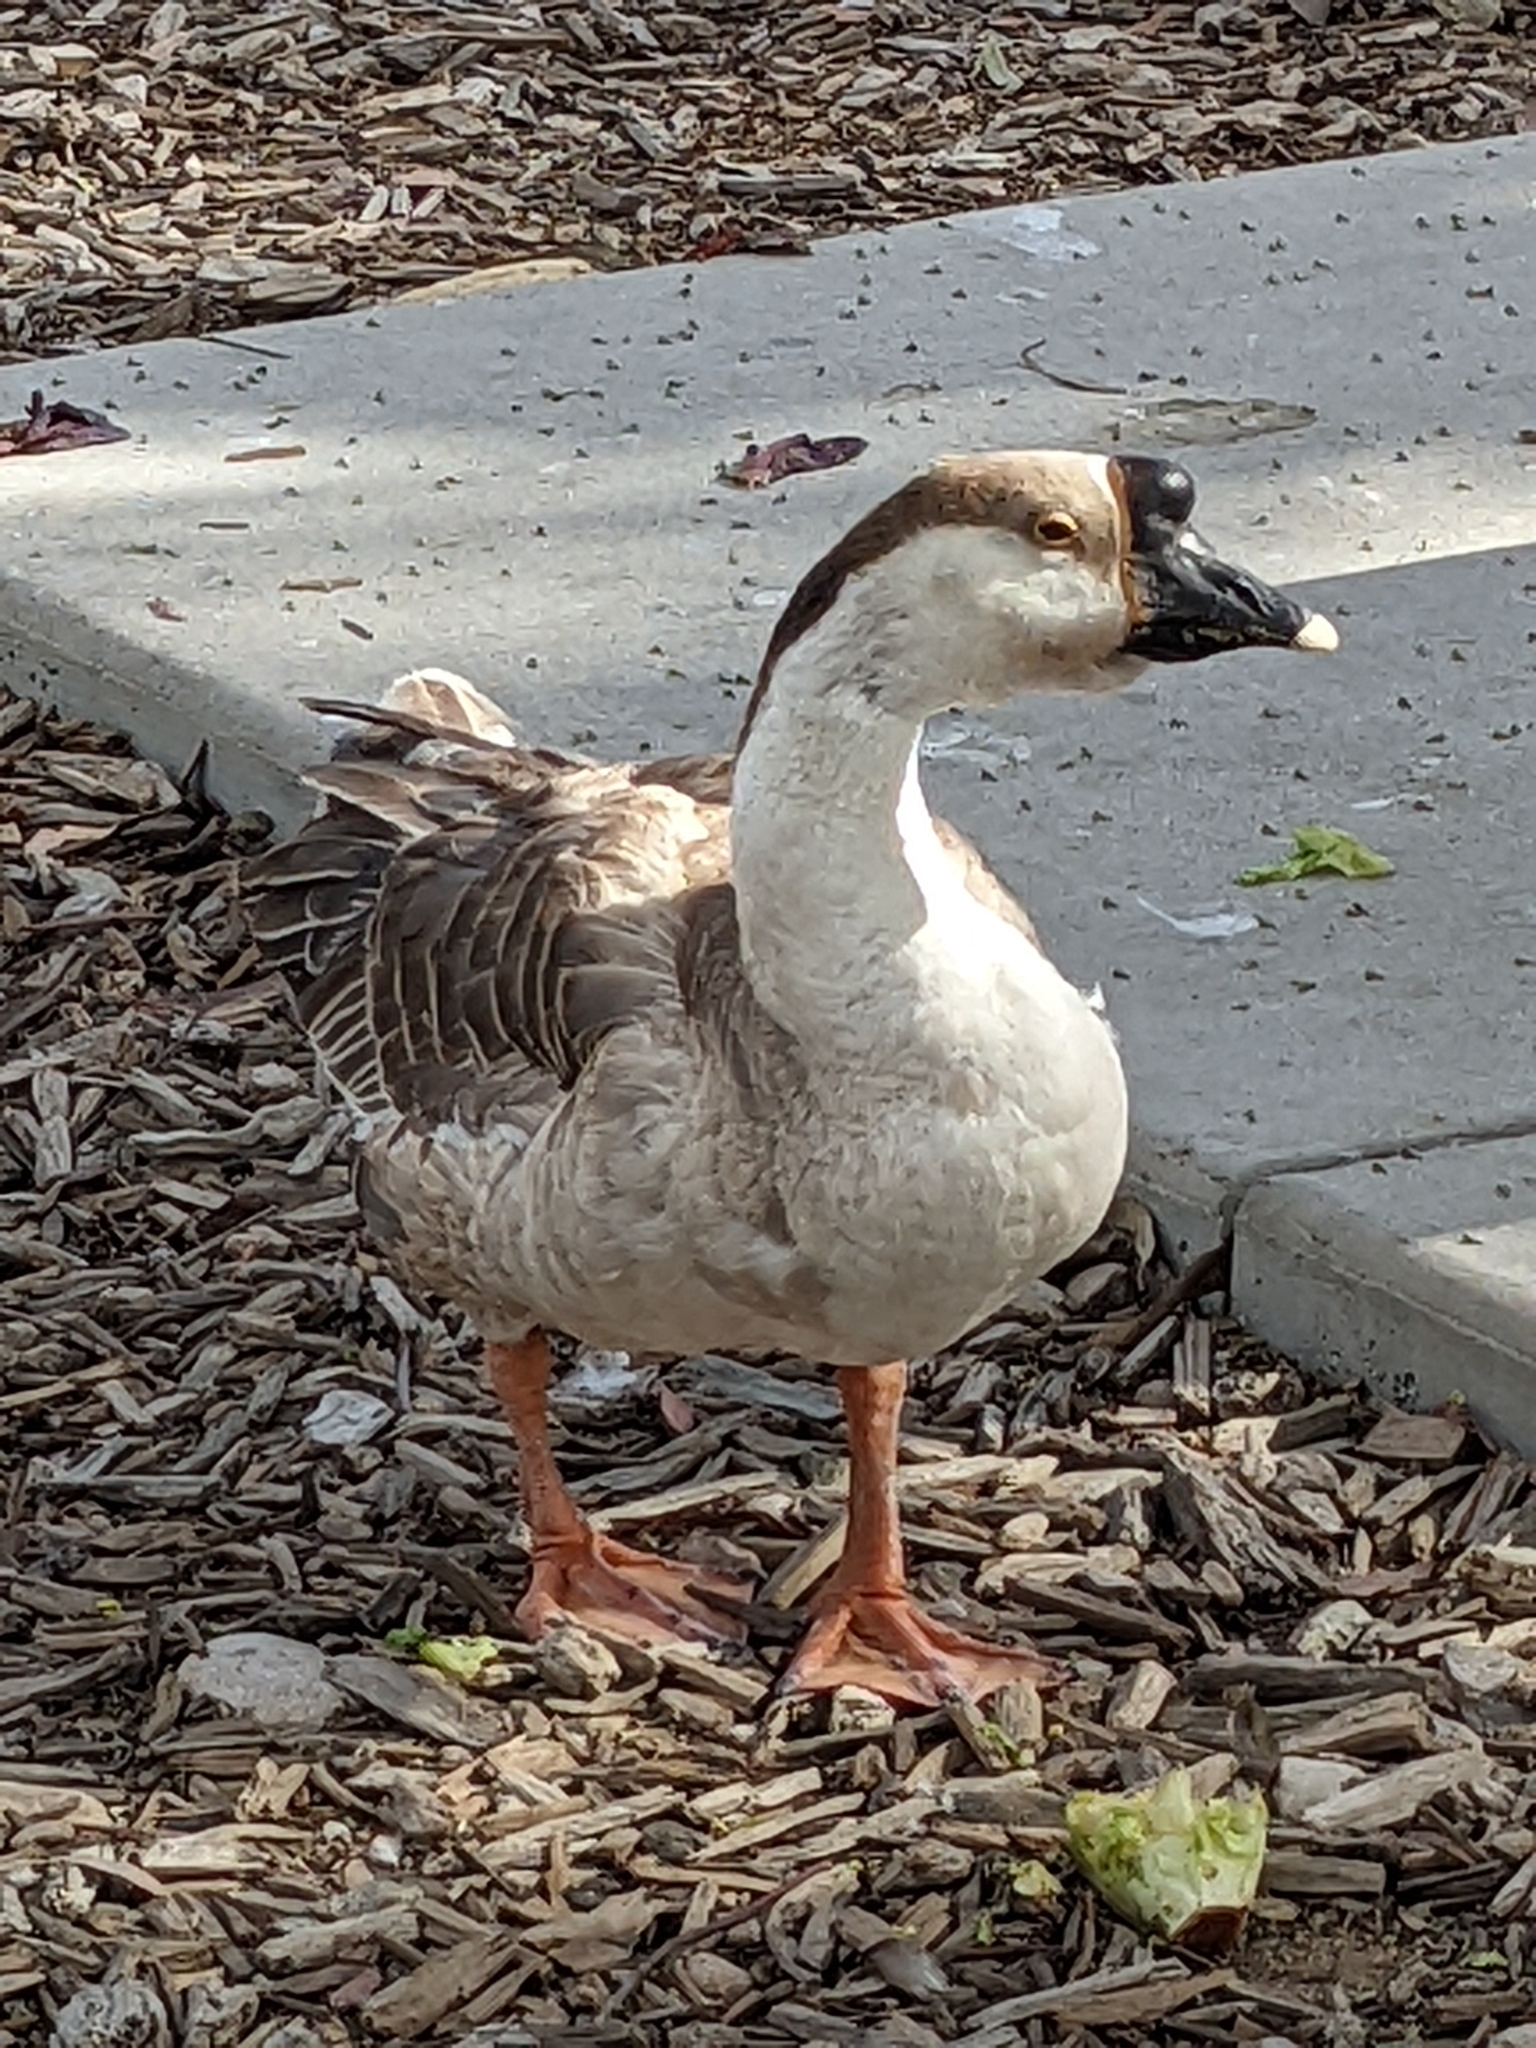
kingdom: Animalia
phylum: Chordata
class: Aves
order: Anseriformes
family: Anatidae
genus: Anser
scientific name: Anser cygnoides
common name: Swan goose
